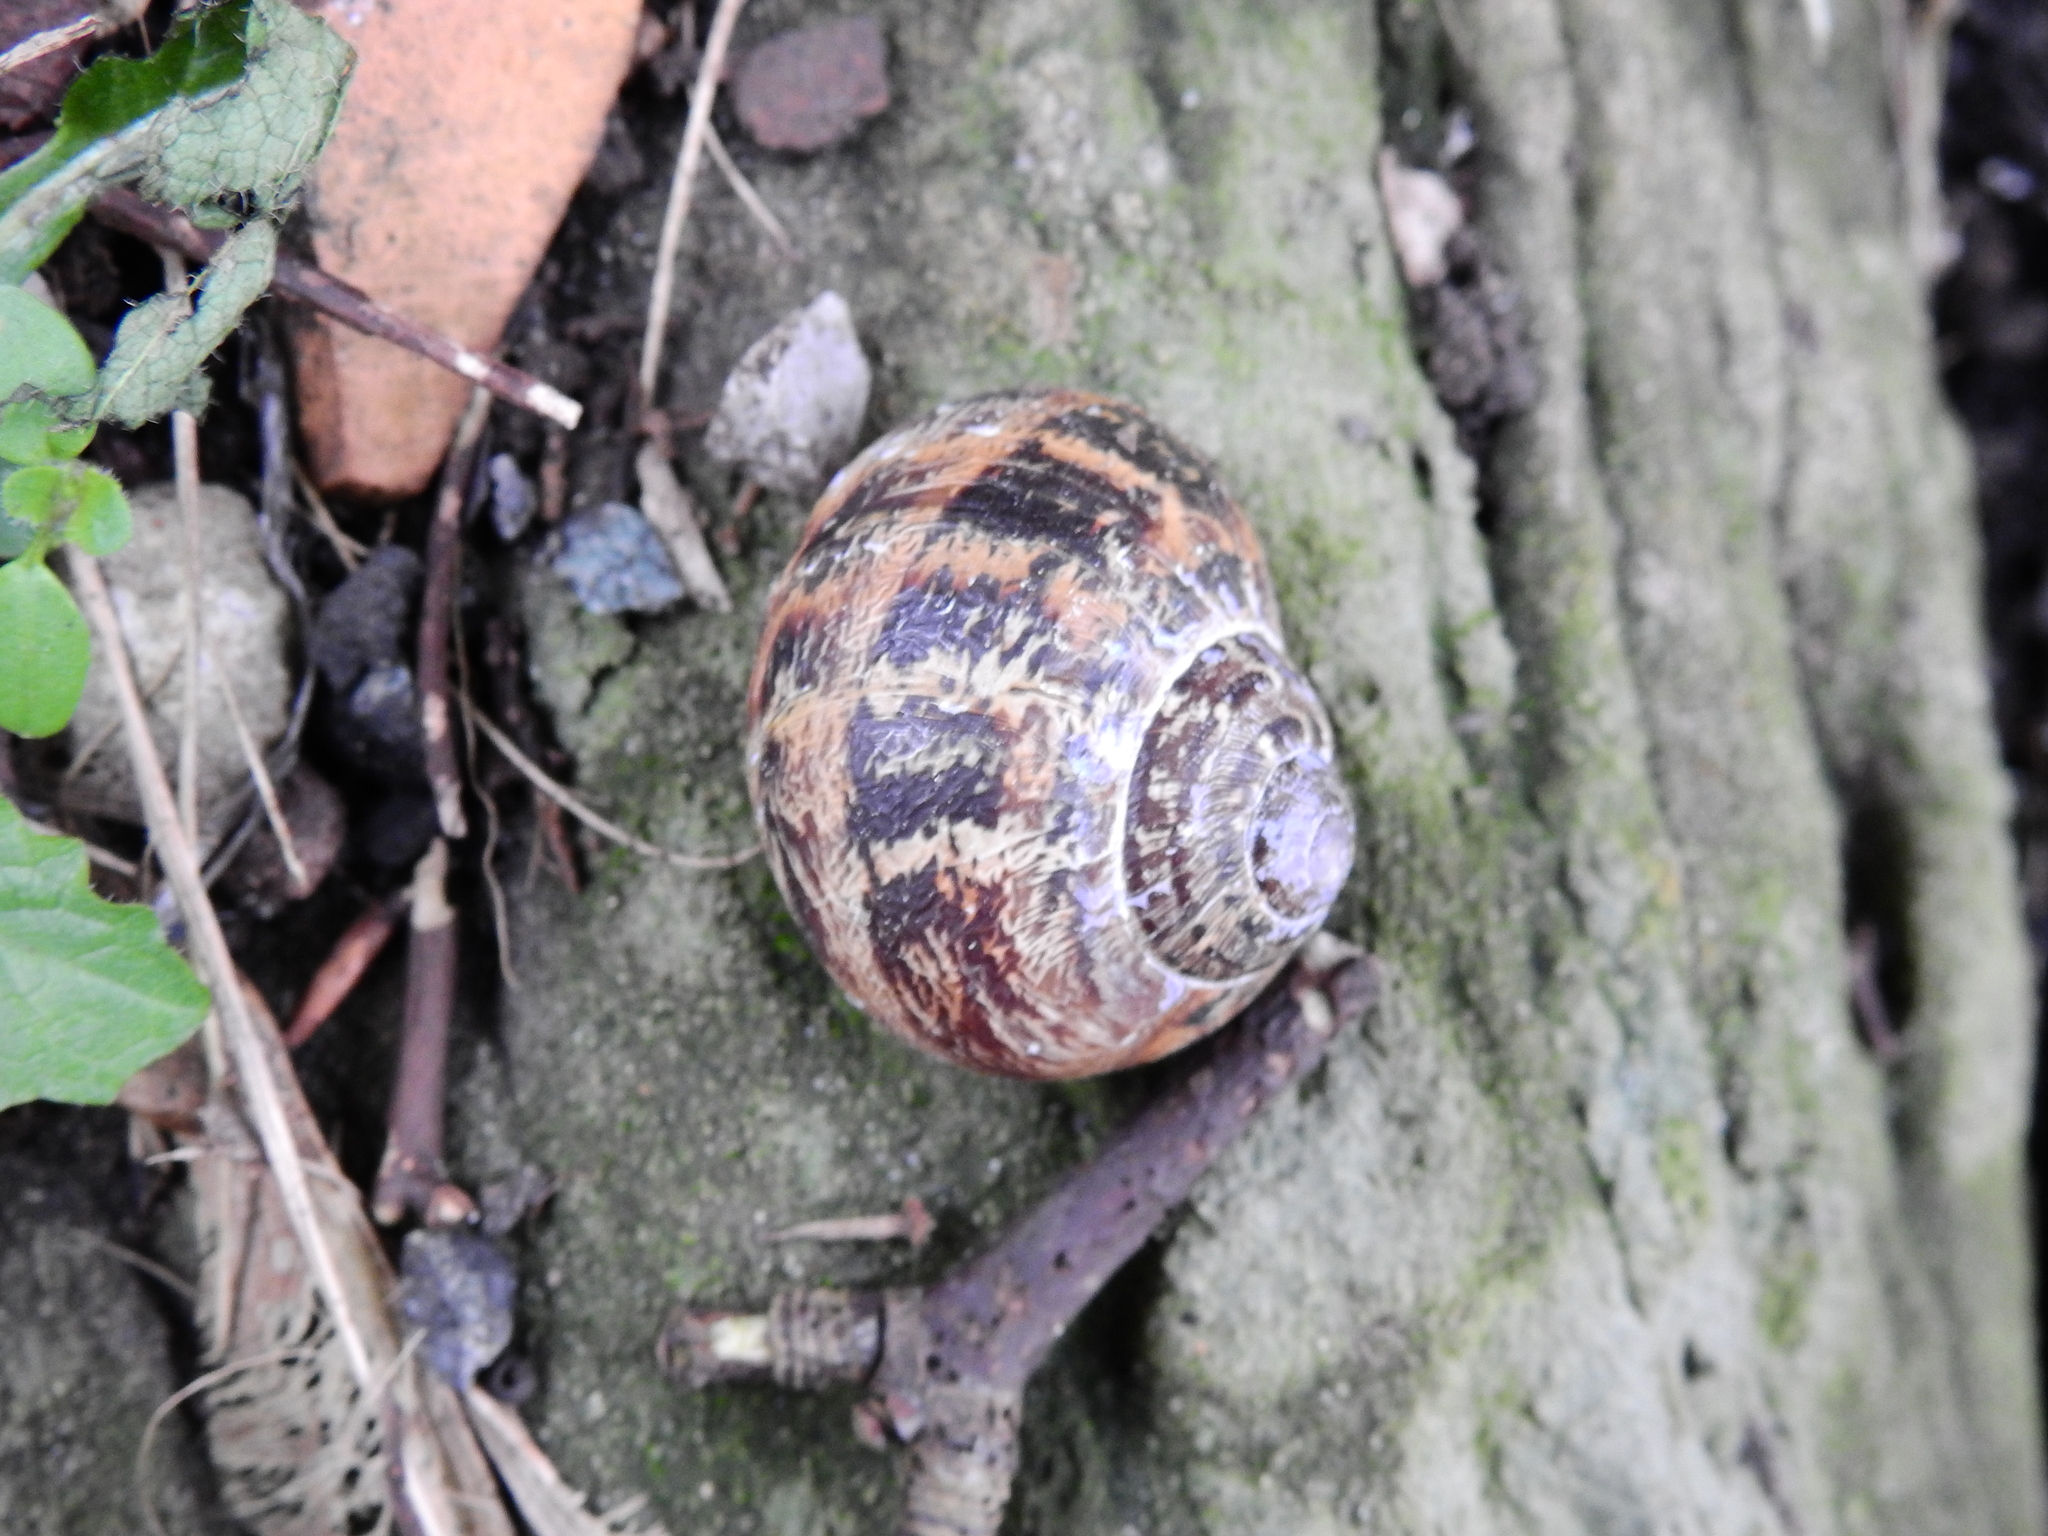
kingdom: Animalia
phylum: Mollusca
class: Gastropoda
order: Stylommatophora
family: Helicidae
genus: Cornu
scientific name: Cornu aspersum
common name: Brown garden snail
